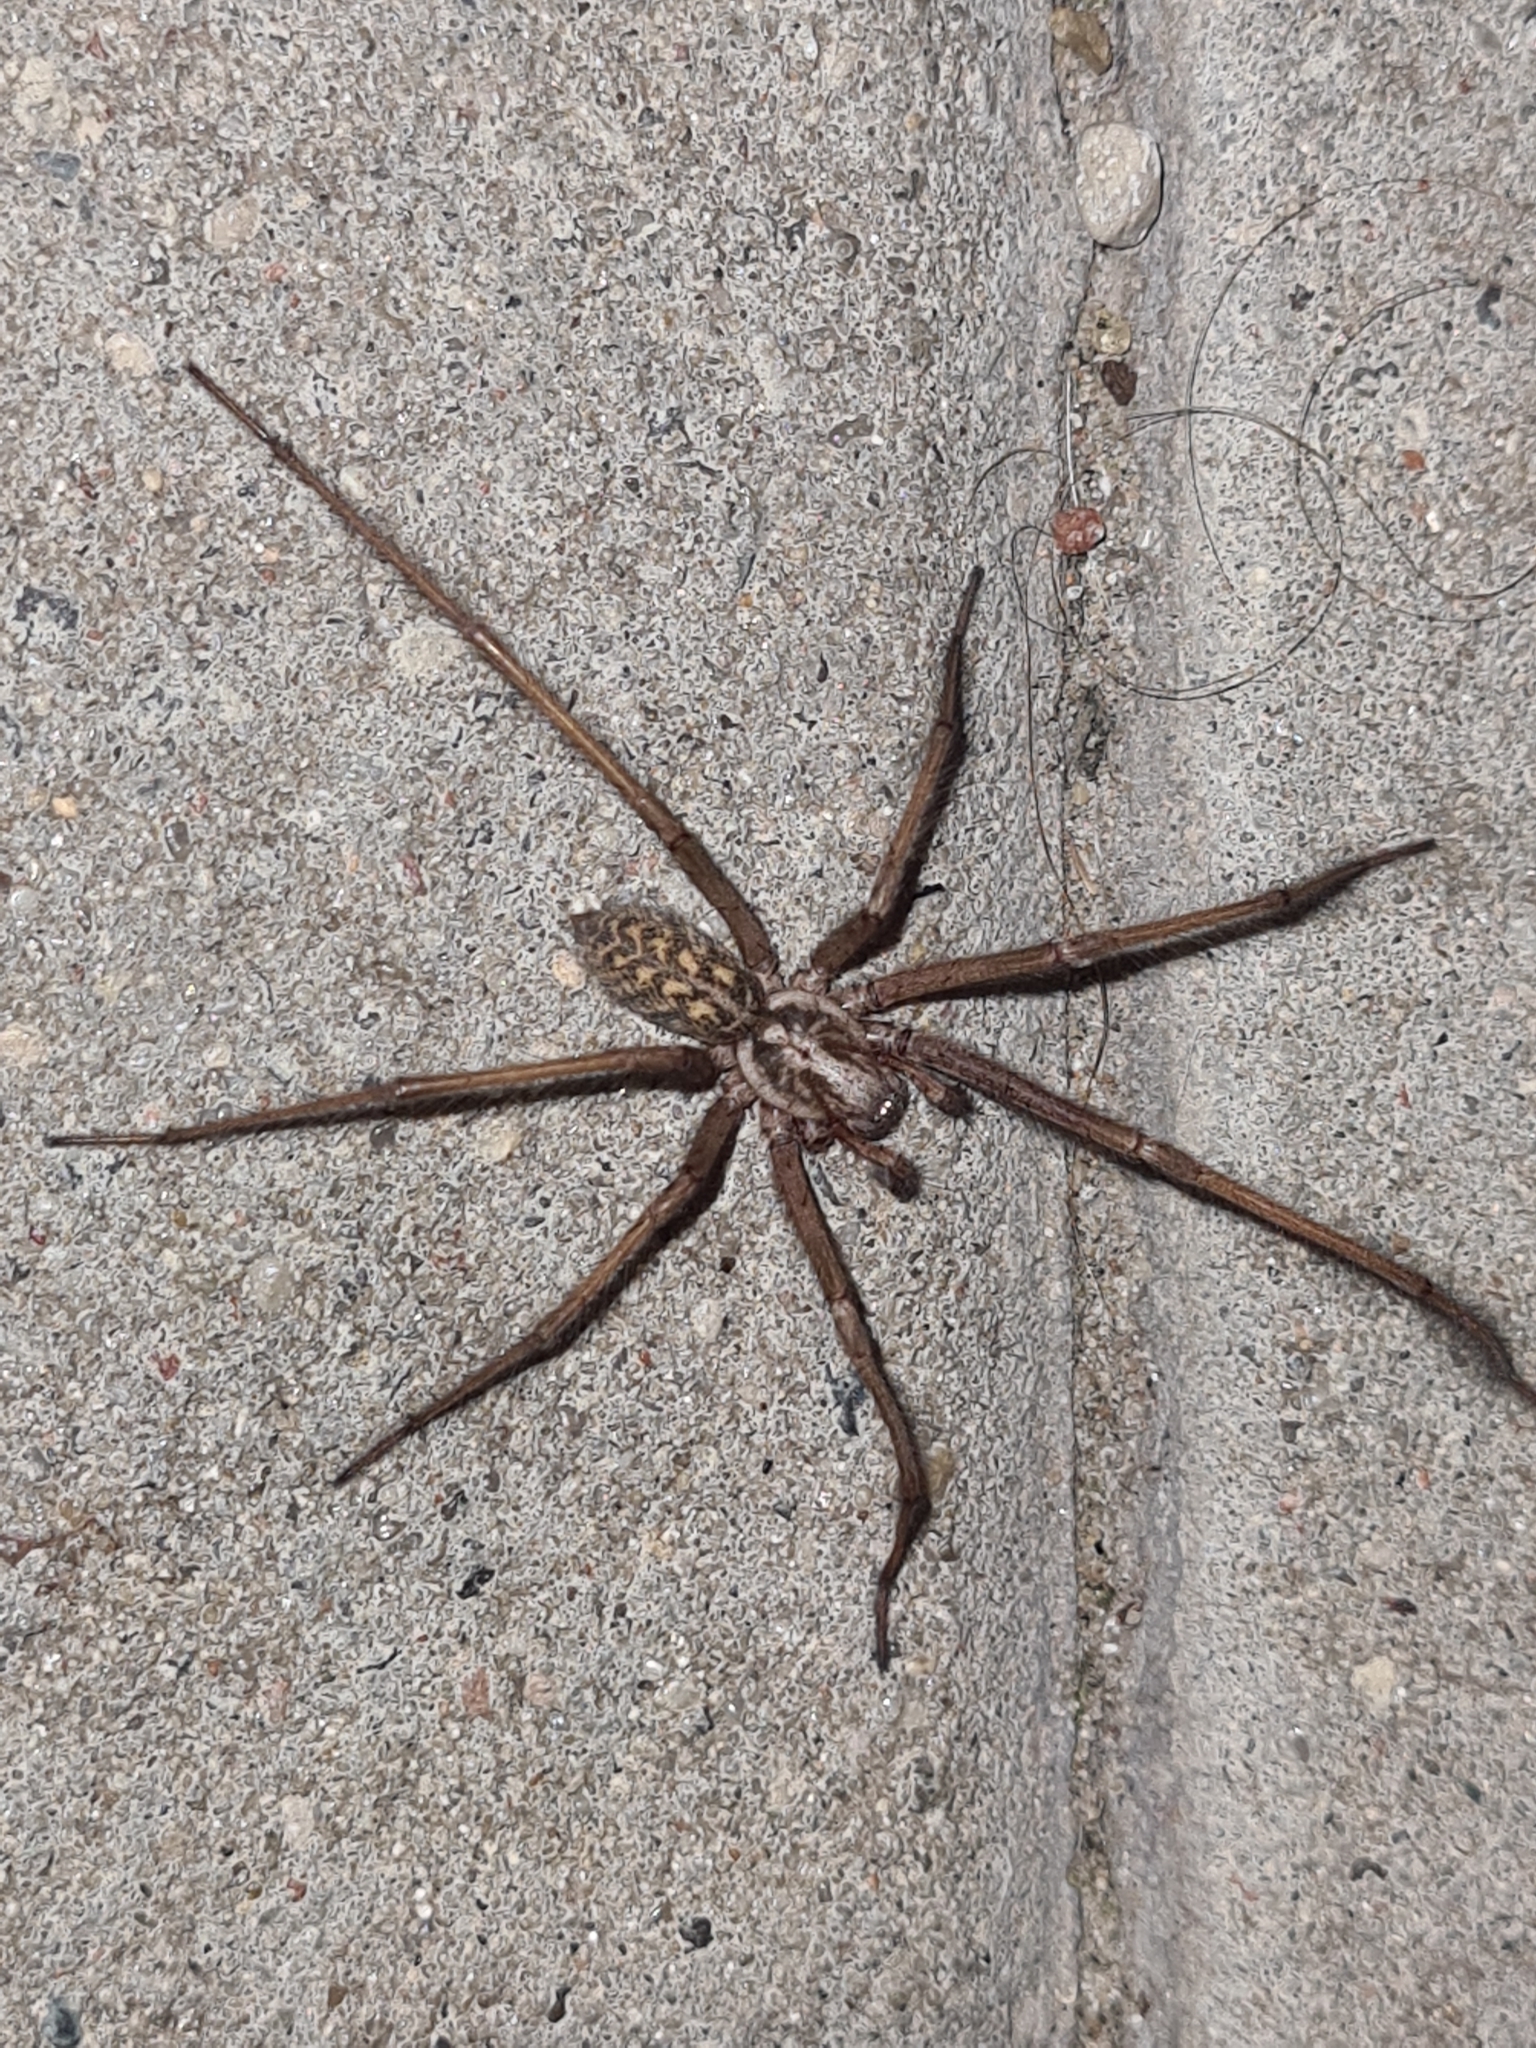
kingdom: Animalia
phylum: Arthropoda
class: Arachnida
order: Araneae
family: Agelenidae
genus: Eratigena
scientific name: Eratigena atrica
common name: Giant house spider
